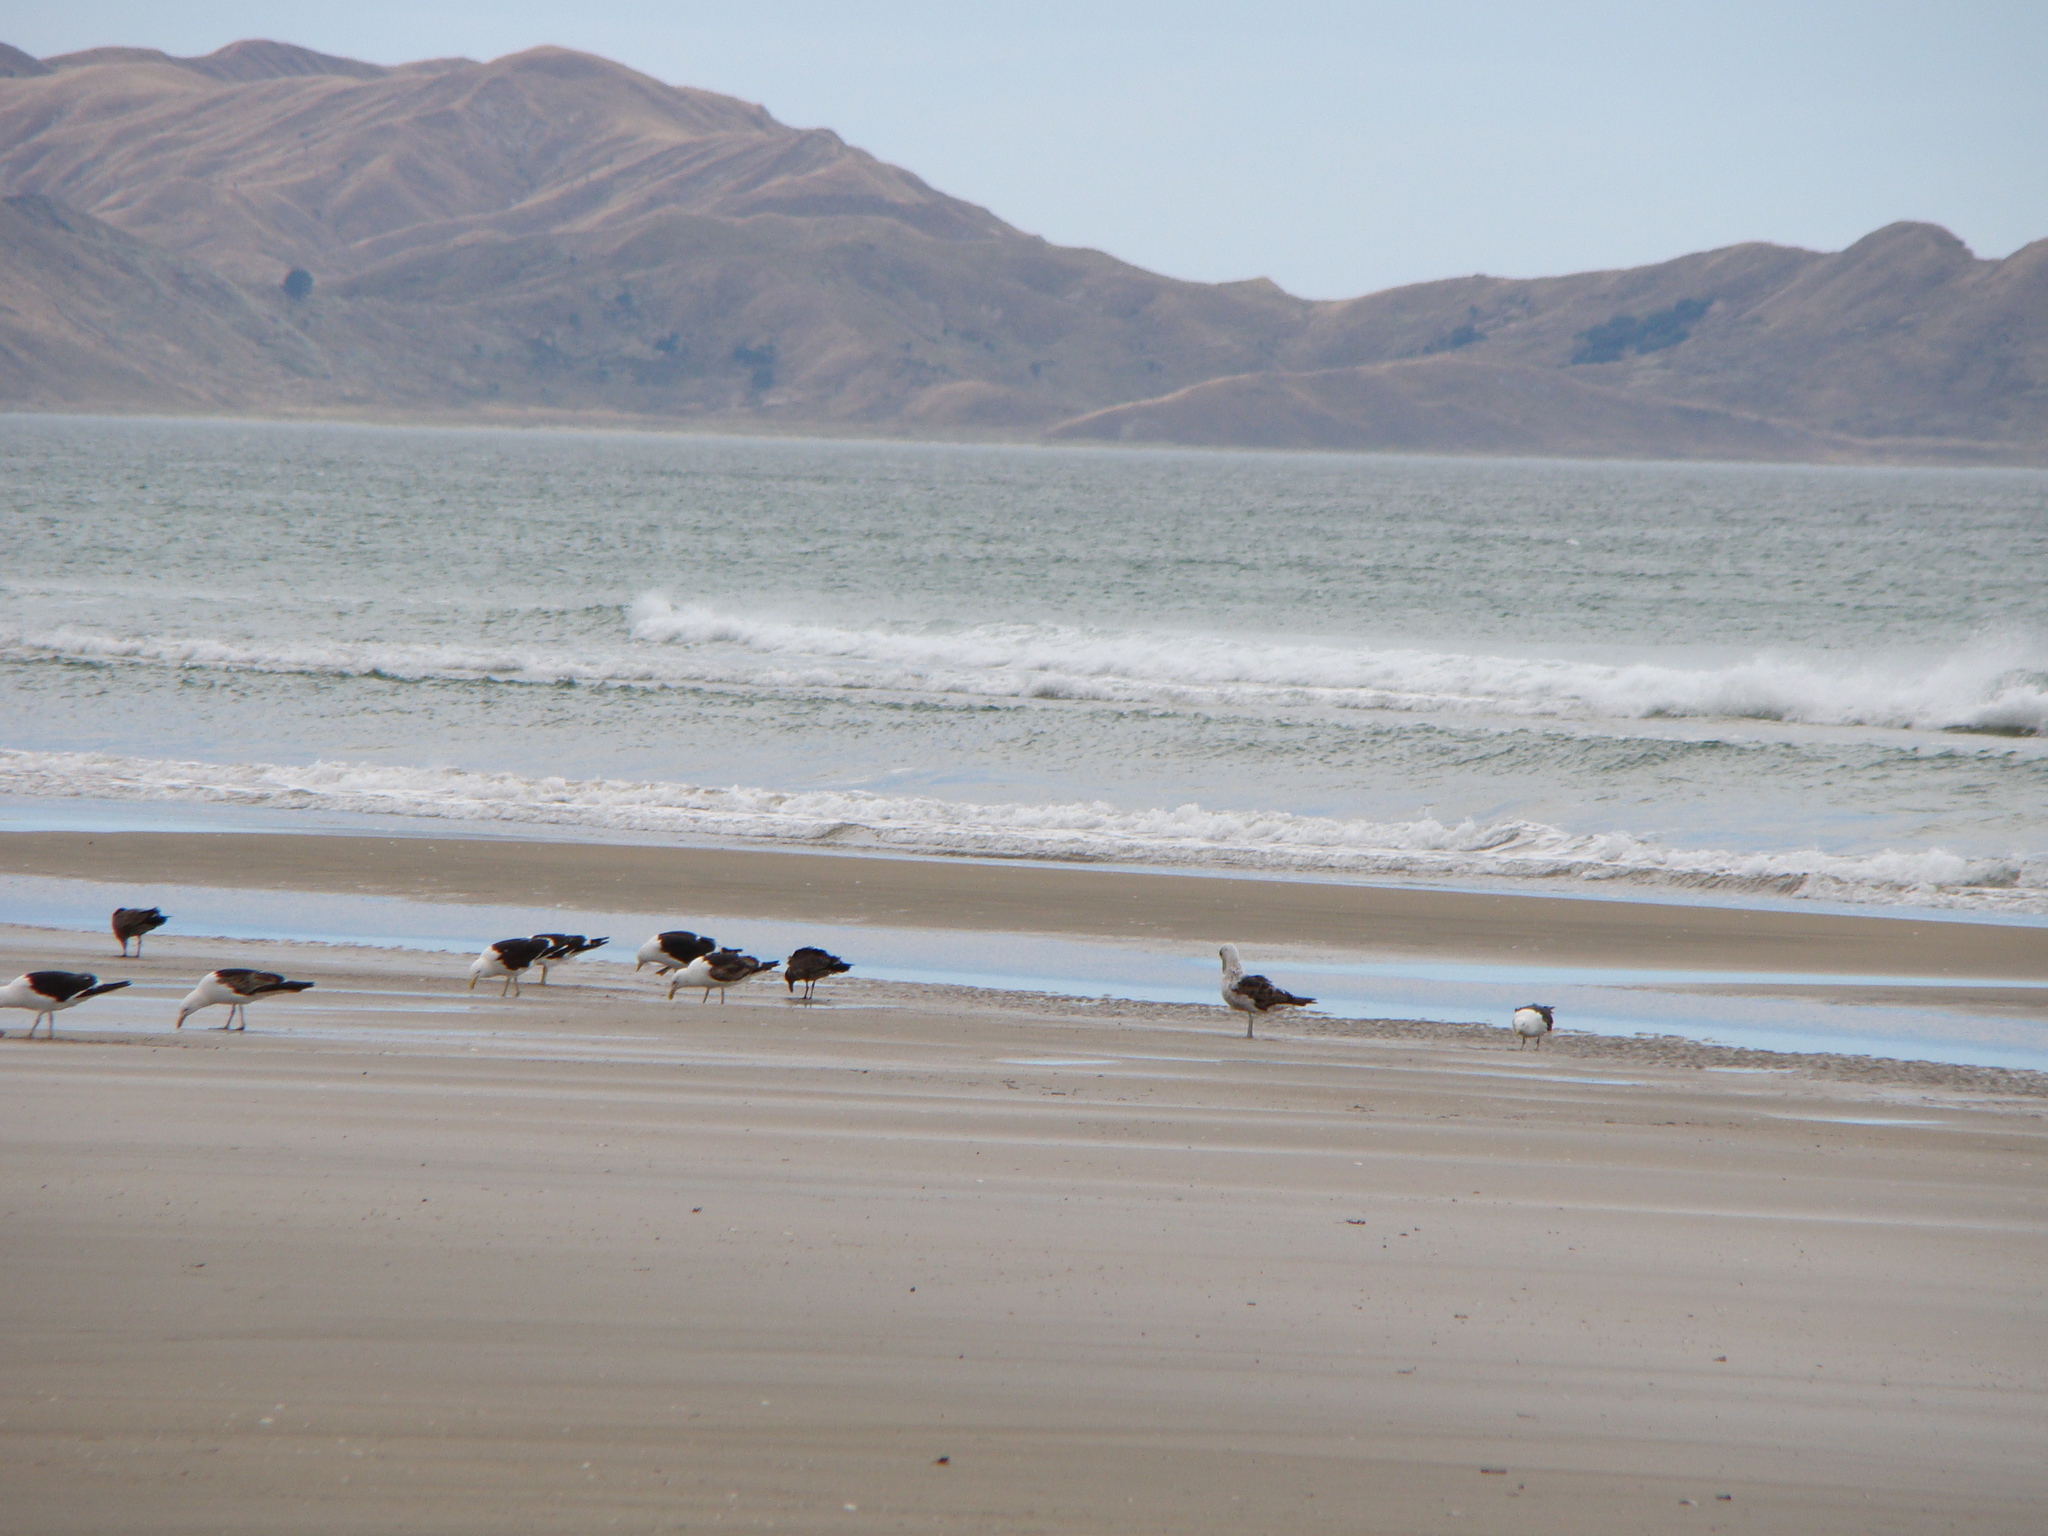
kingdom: Animalia
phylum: Chordata
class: Aves
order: Charadriiformes
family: Laridae
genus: Larus
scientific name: Larus dominicanus
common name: Kelp gull
